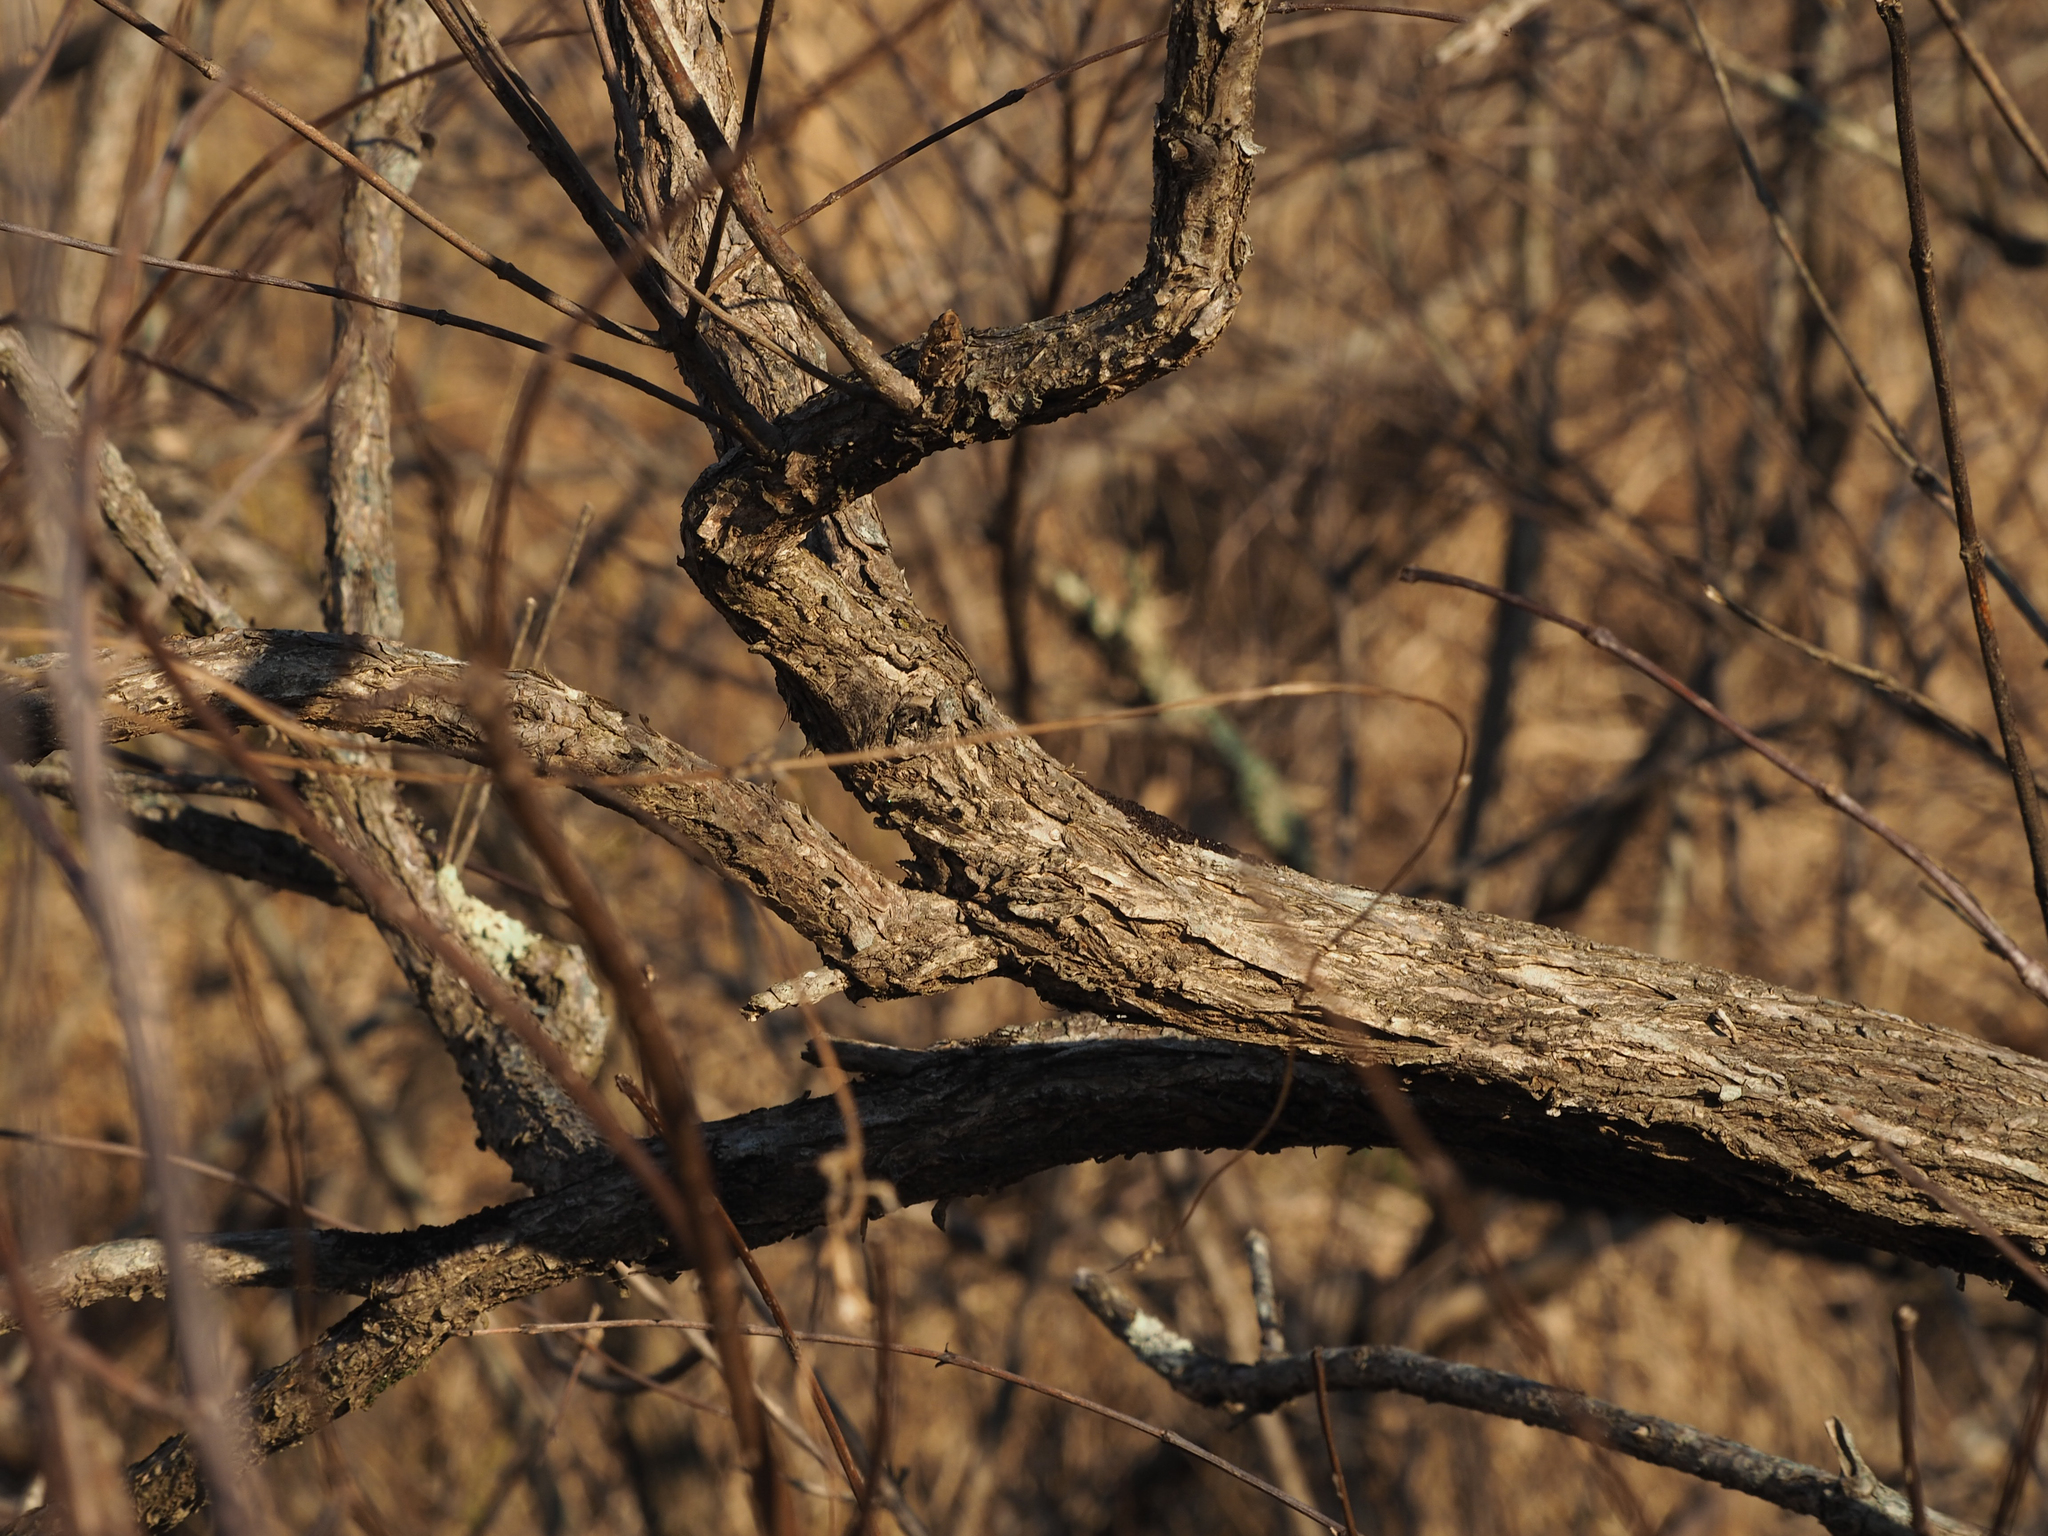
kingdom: Plantae
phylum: Tracheophyta
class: Magnoliopsida
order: Gentianales
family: Rubiaceae
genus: Cephalanthus
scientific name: Cephalanthus occidentalis
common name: Button-willow
